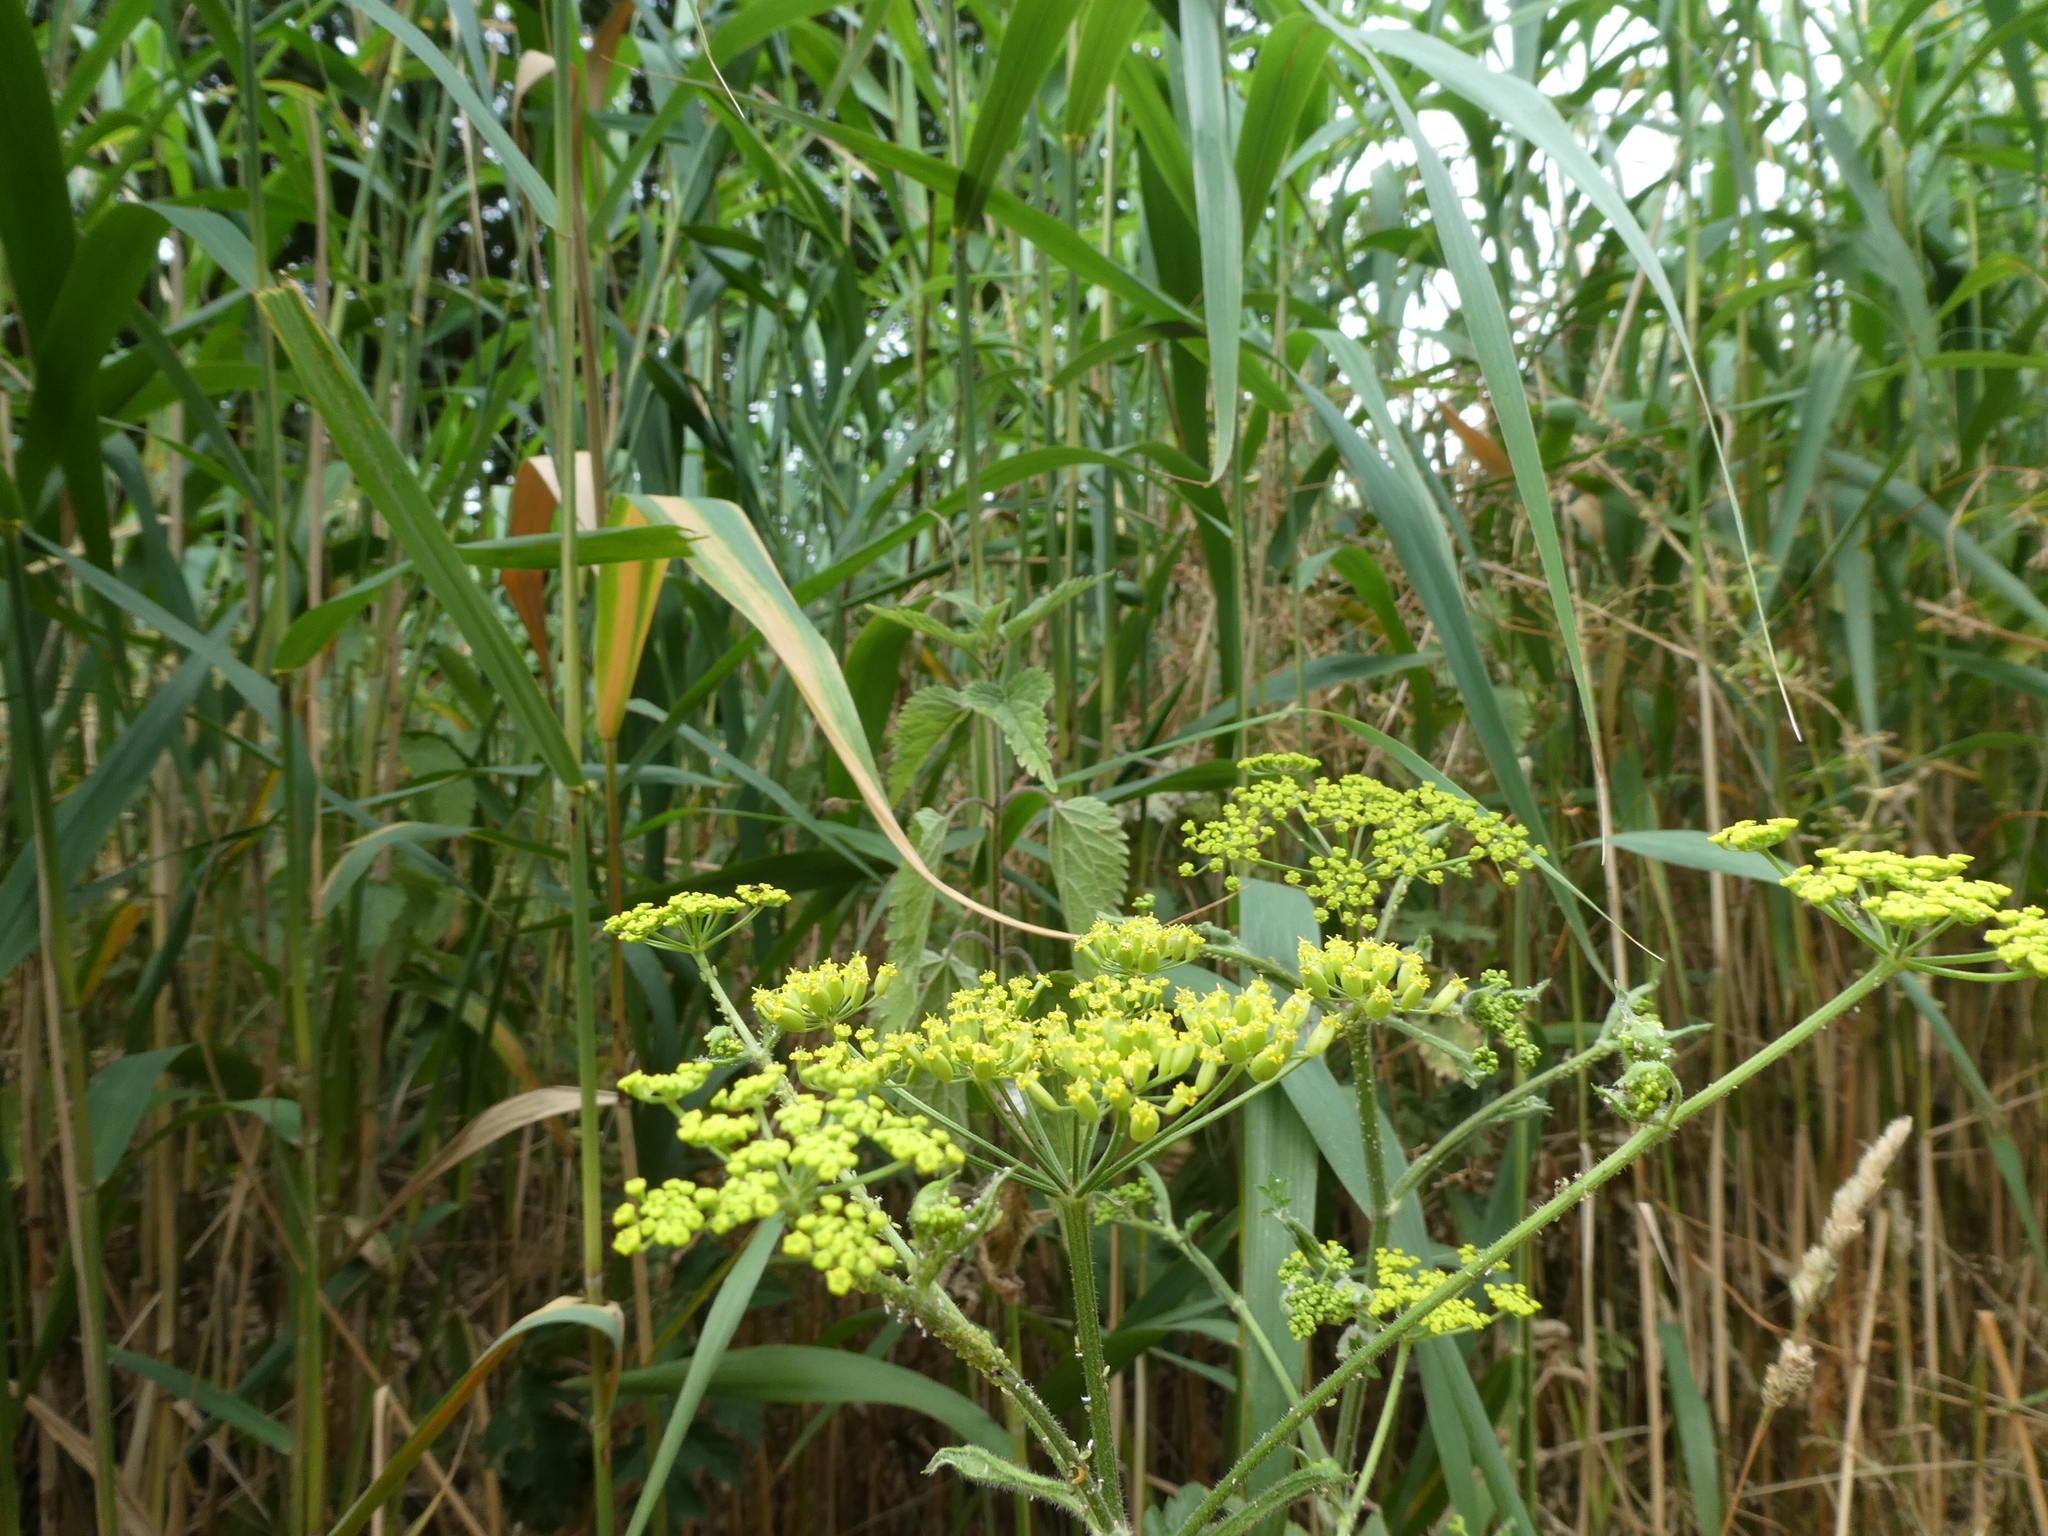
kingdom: Plantae
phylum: Tracheophyta
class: Magnoliopsida
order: Apiales
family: Apiaceae
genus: Pastinaca
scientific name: Pastinaca sativa
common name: Wild parsnip
